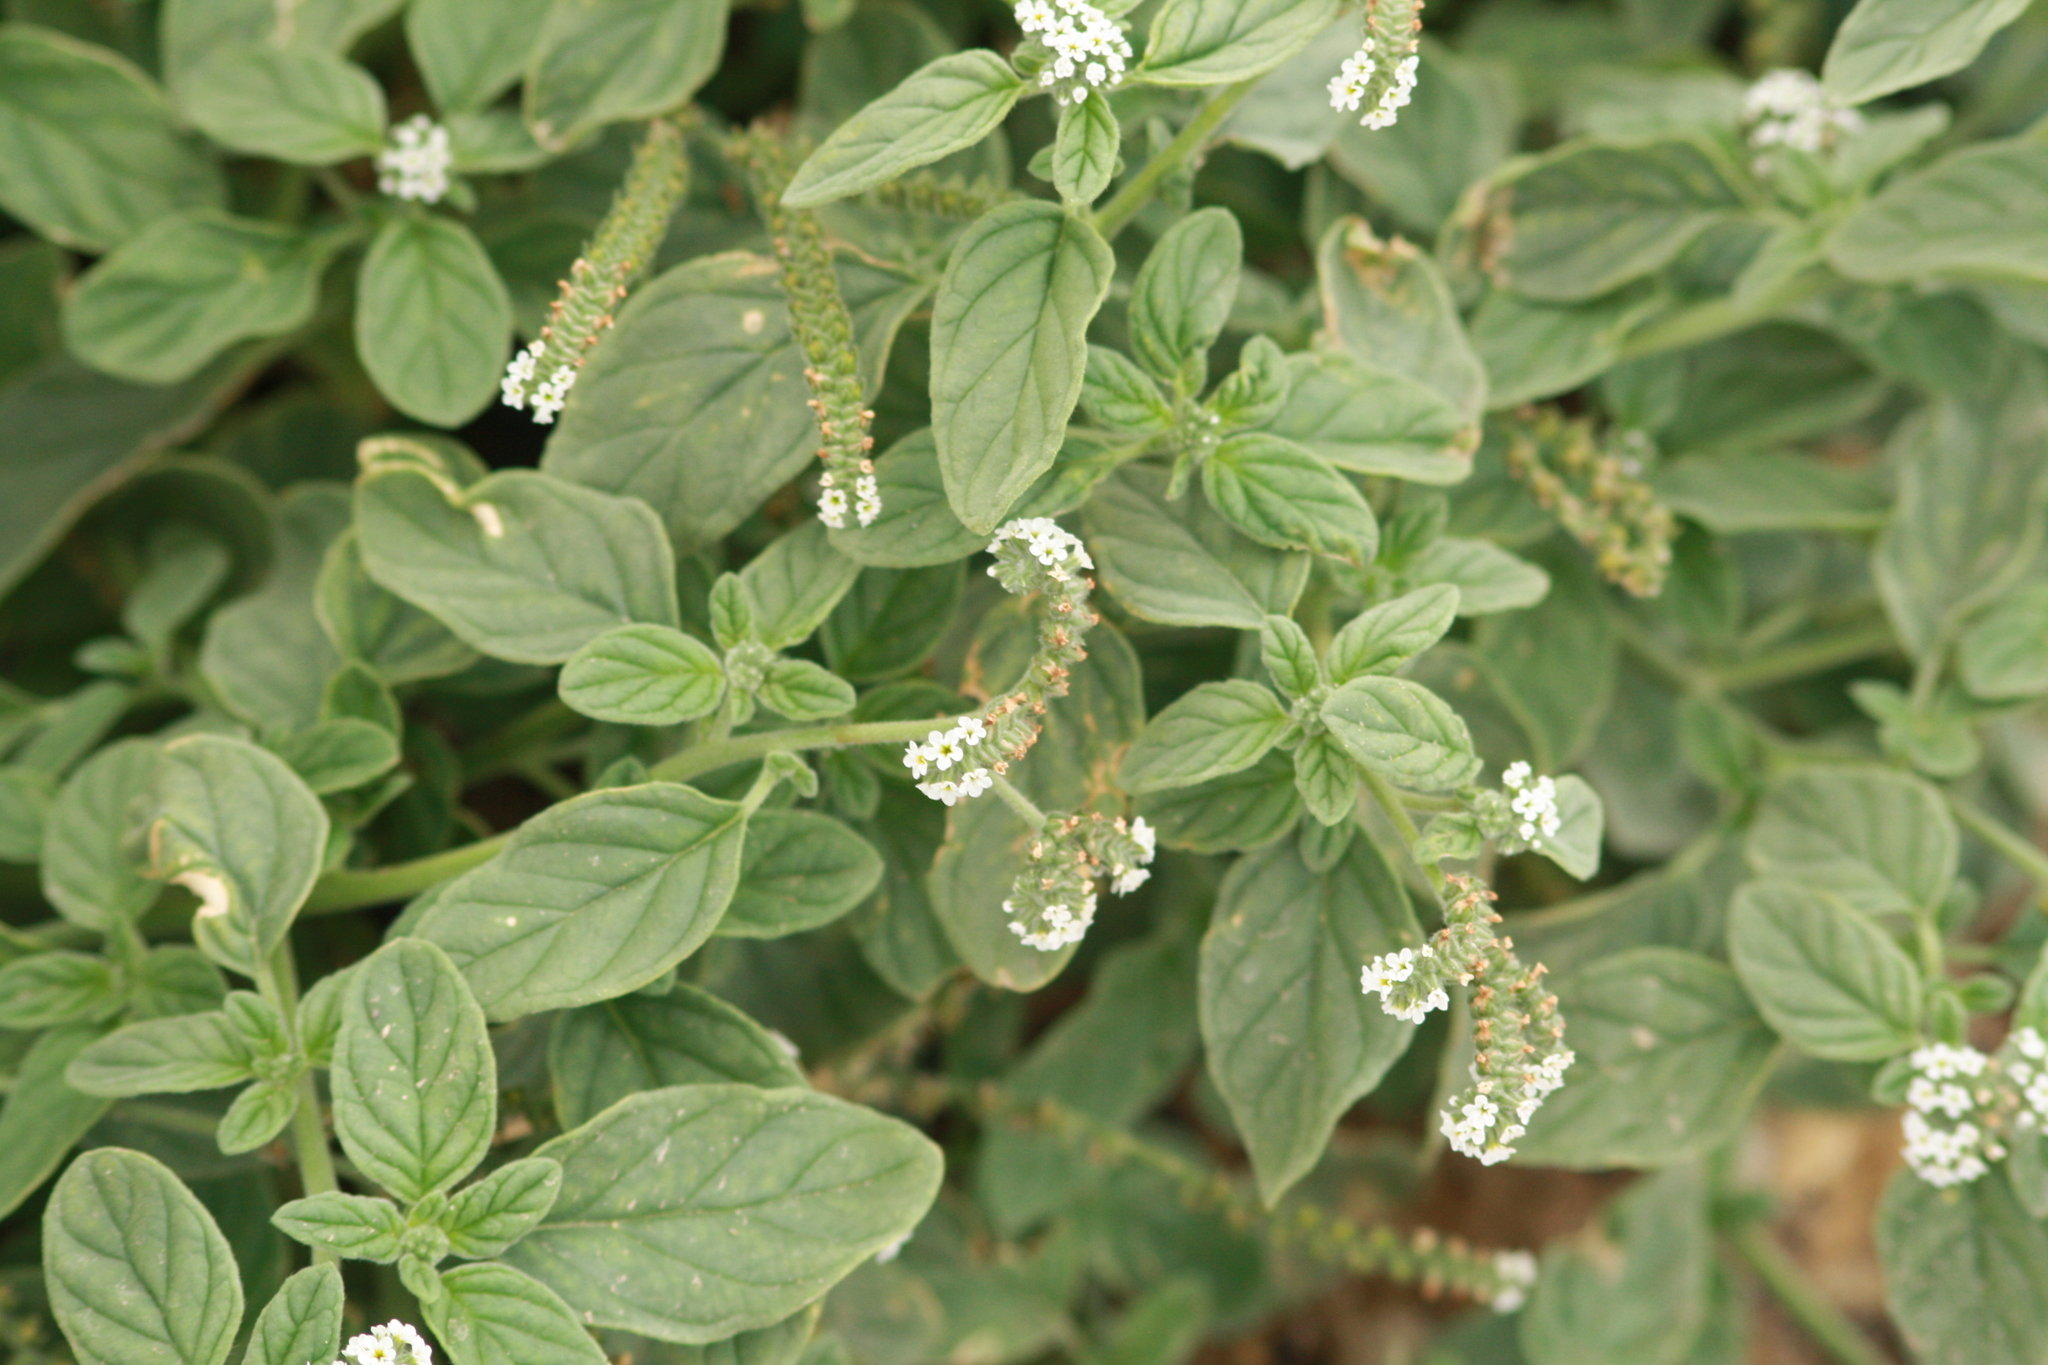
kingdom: Plantae
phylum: Tracheophyta
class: Magnoliopsida
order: Boraginales
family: Heliotropiaceae
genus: Heliotropium
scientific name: Heliotropium europaeum
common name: European heliotrope
